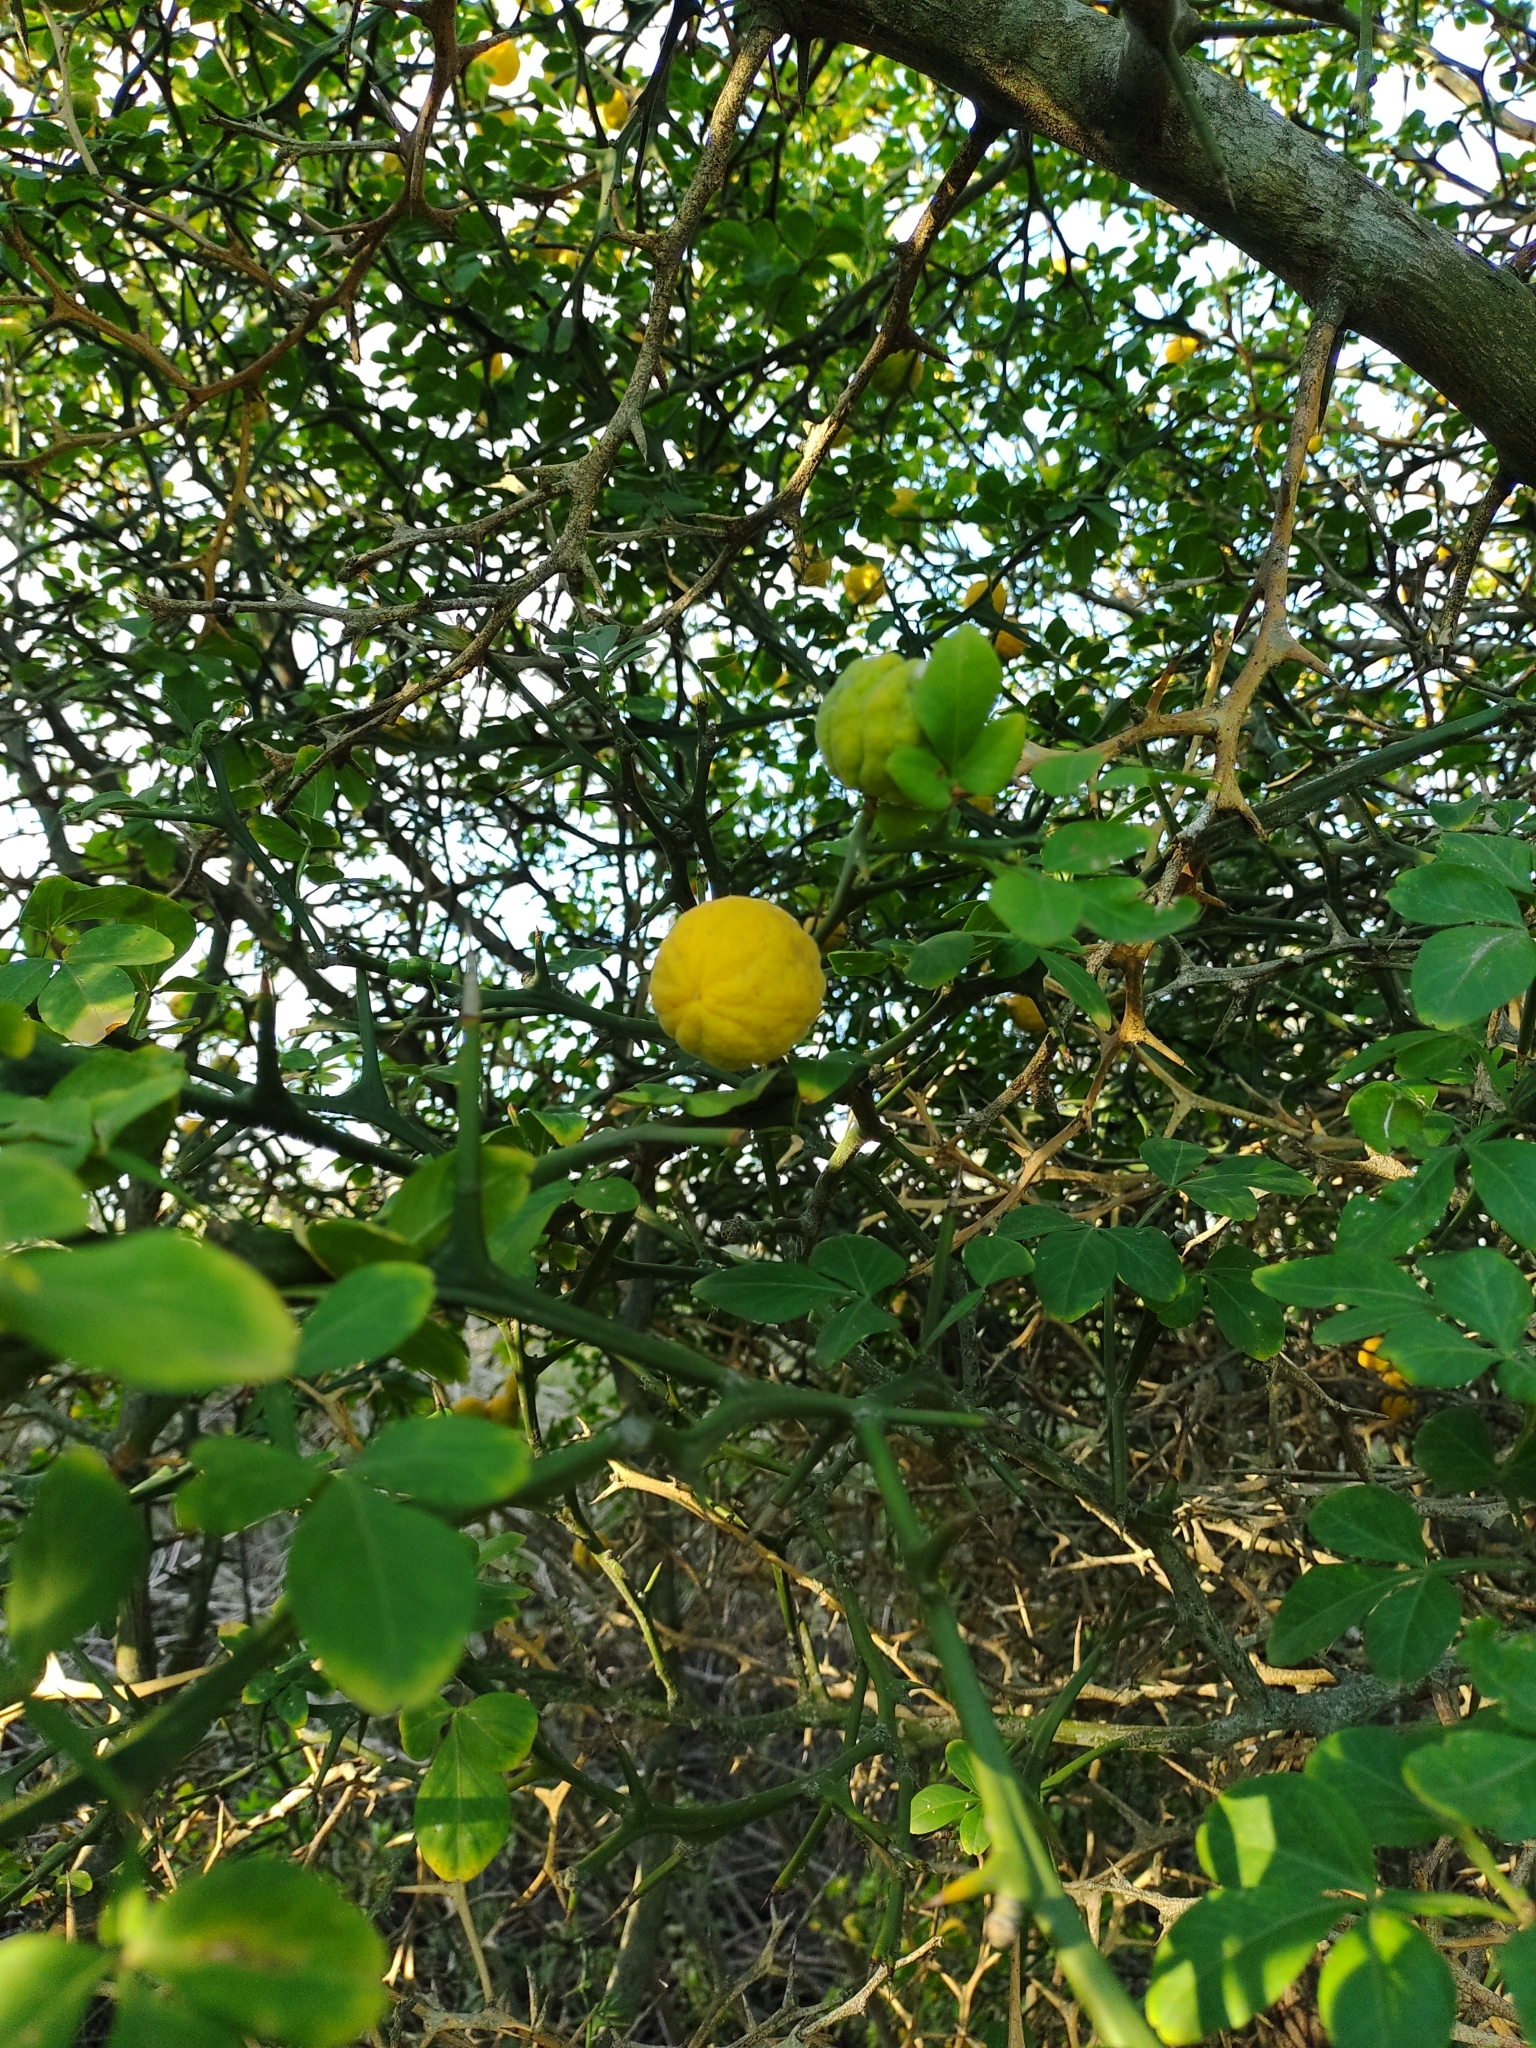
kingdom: Plantae
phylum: Tracheophyta
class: Magnoliopsida
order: Sapindales
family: Rutaceae
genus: Citrus
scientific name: Citrus trifoliata
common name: Japanese bitter-orange
